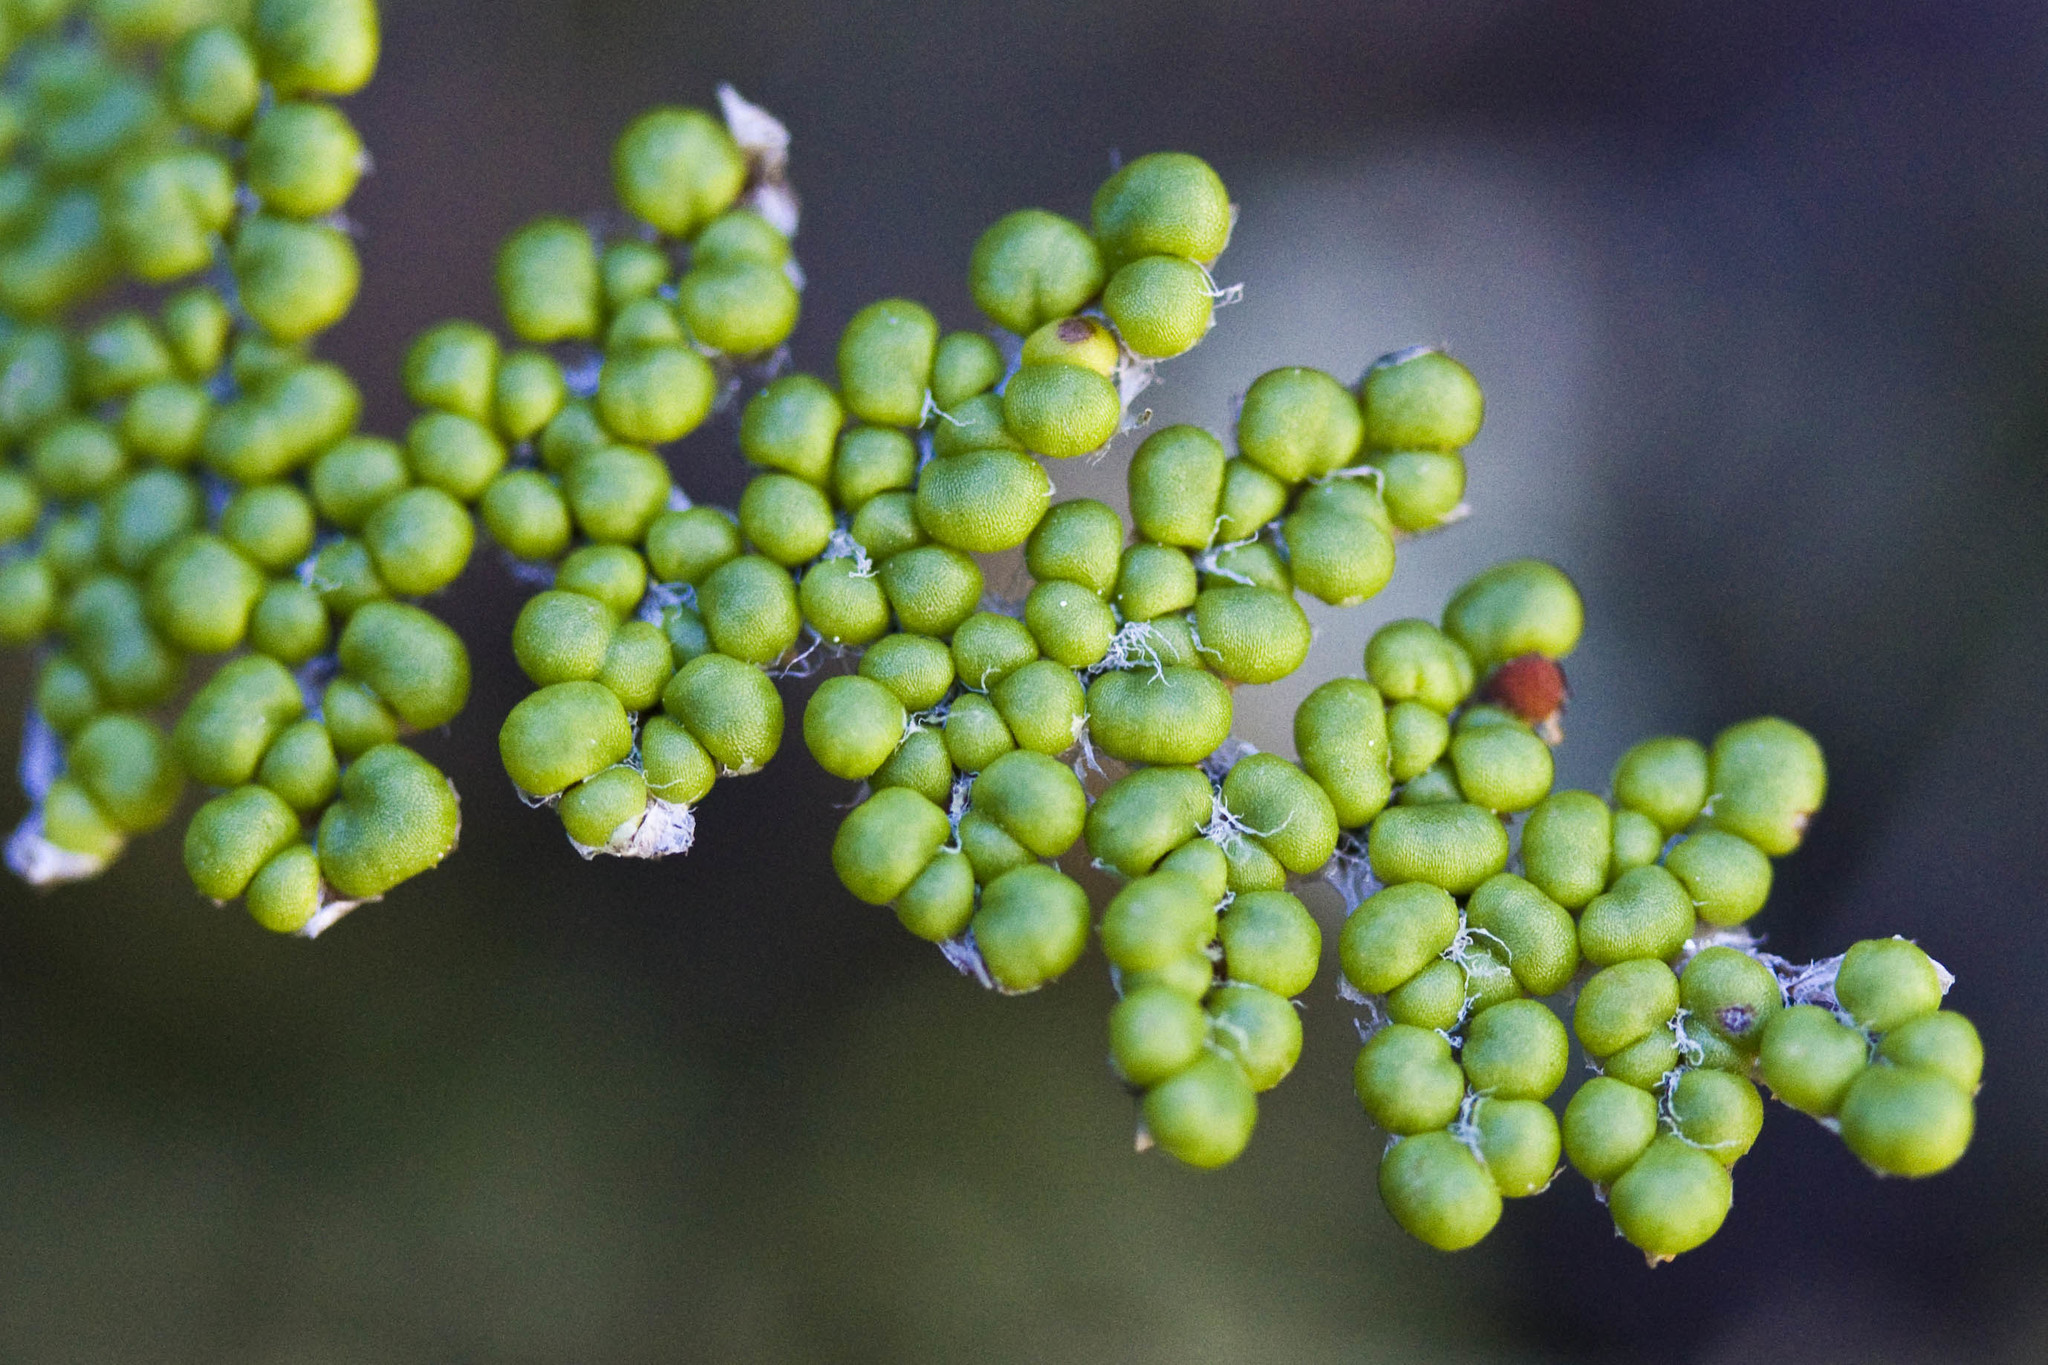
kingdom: Plantae
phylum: Tracheophyta
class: Polypodiopsida
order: Polypodiales
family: Pteridaceae
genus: Myriopteris
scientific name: Myriopteris covillei
